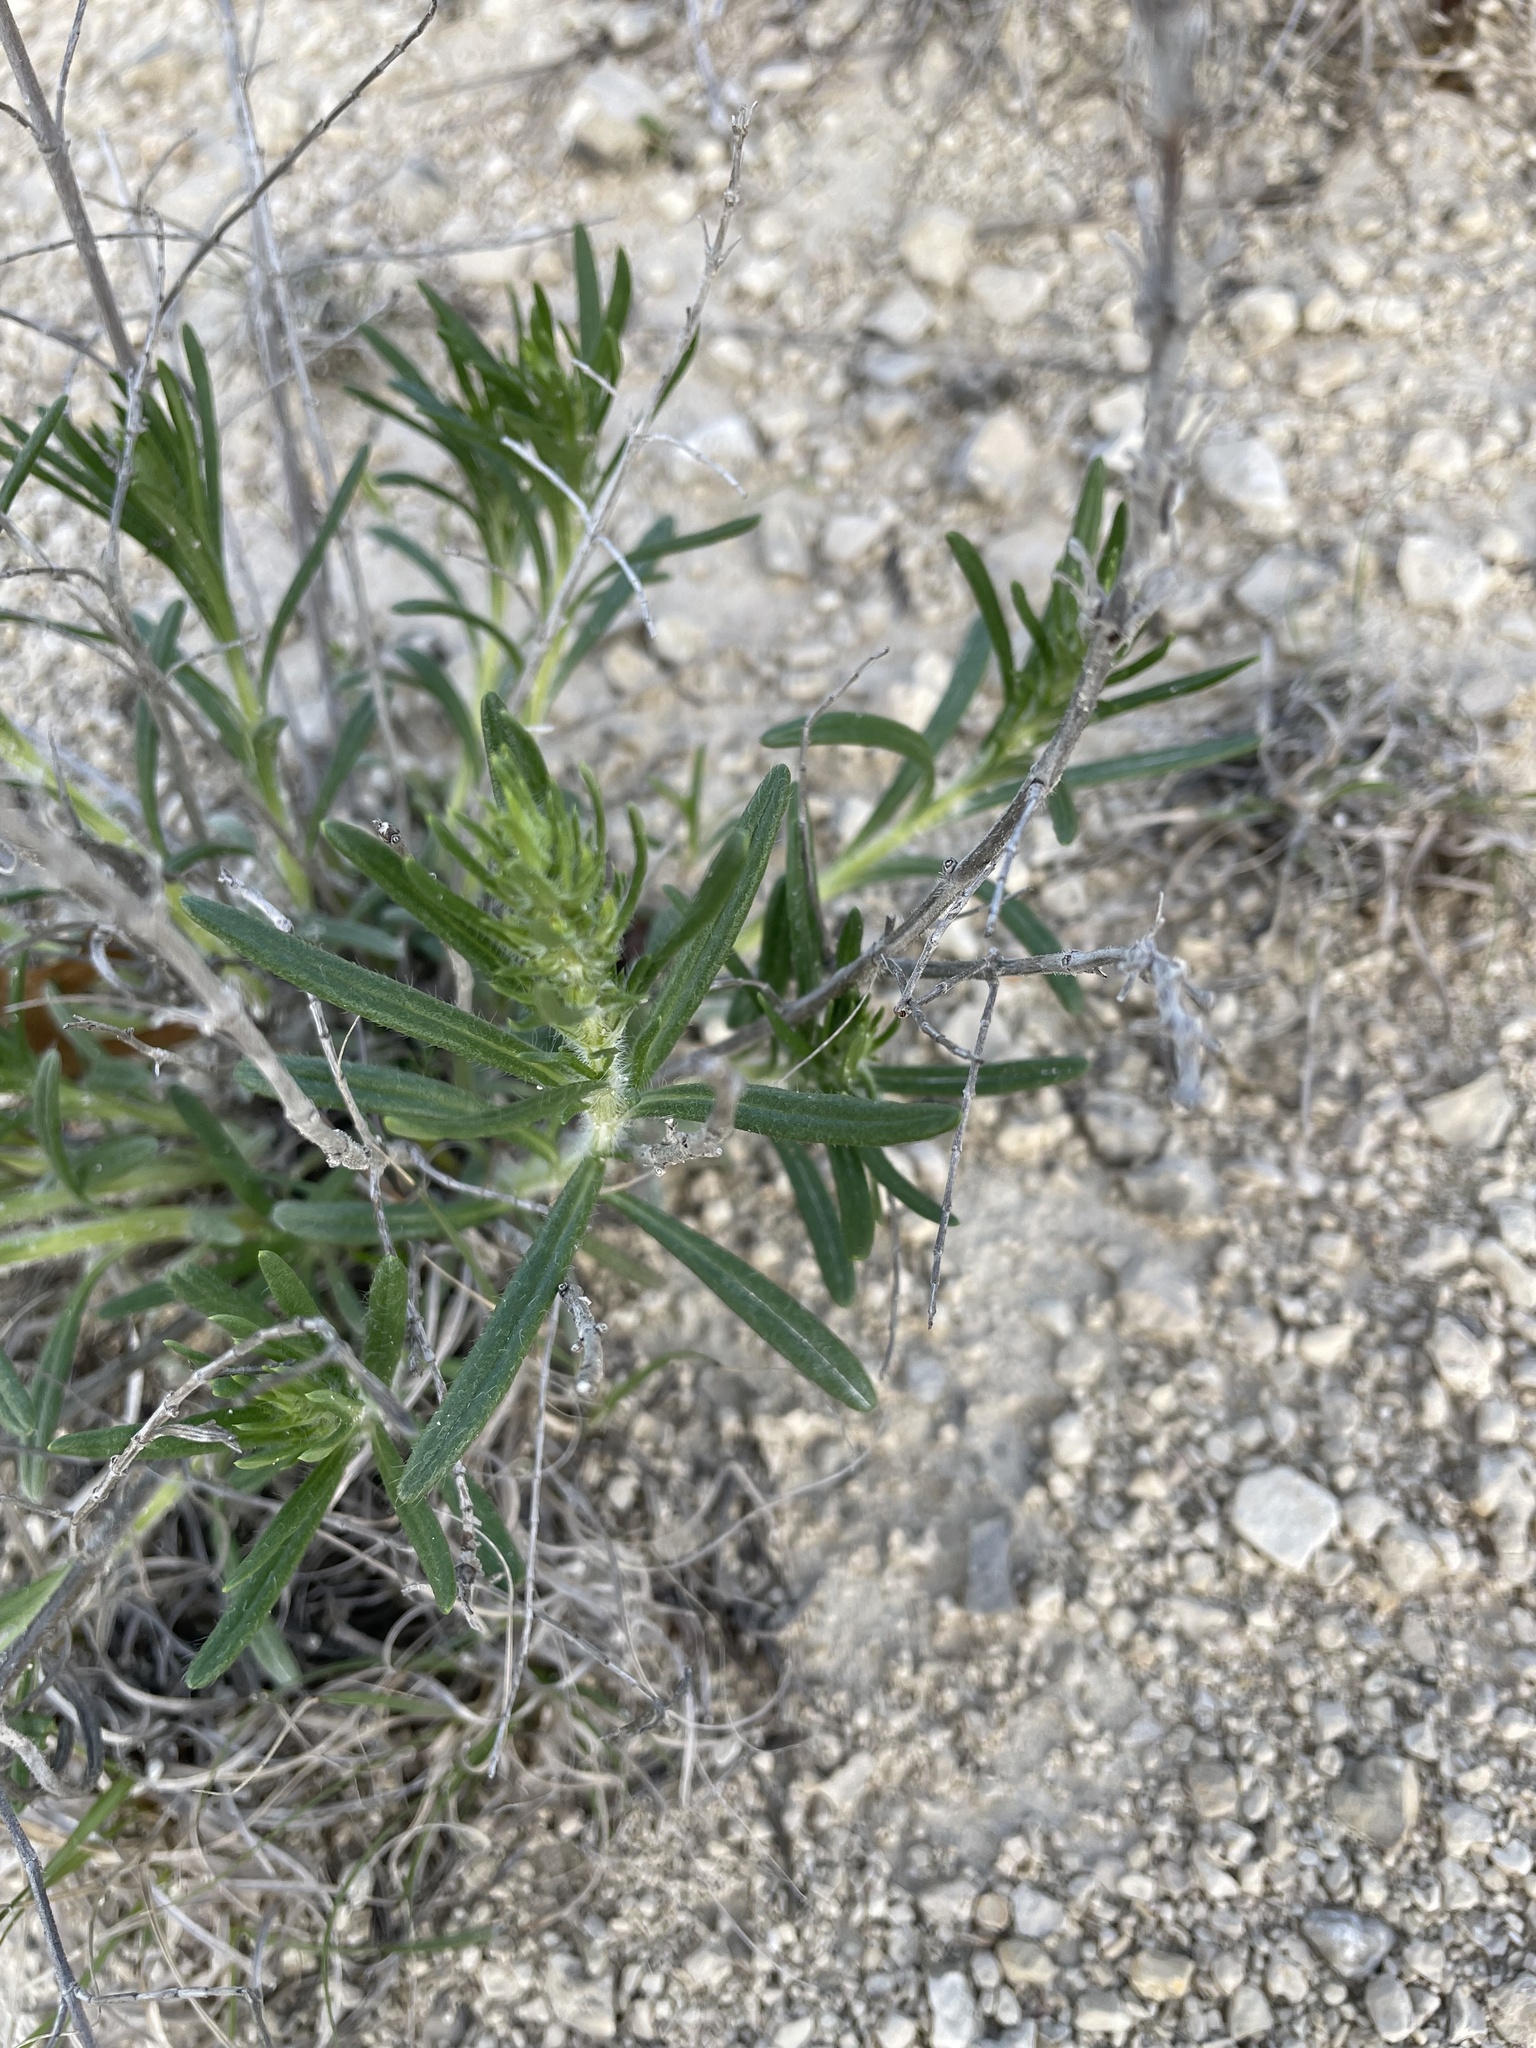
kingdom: Plantae
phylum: Tracheophyta
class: Magnoliopsida
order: Lamiales
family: Lamiaceae
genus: Salvia
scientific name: Salvia engelmannii
